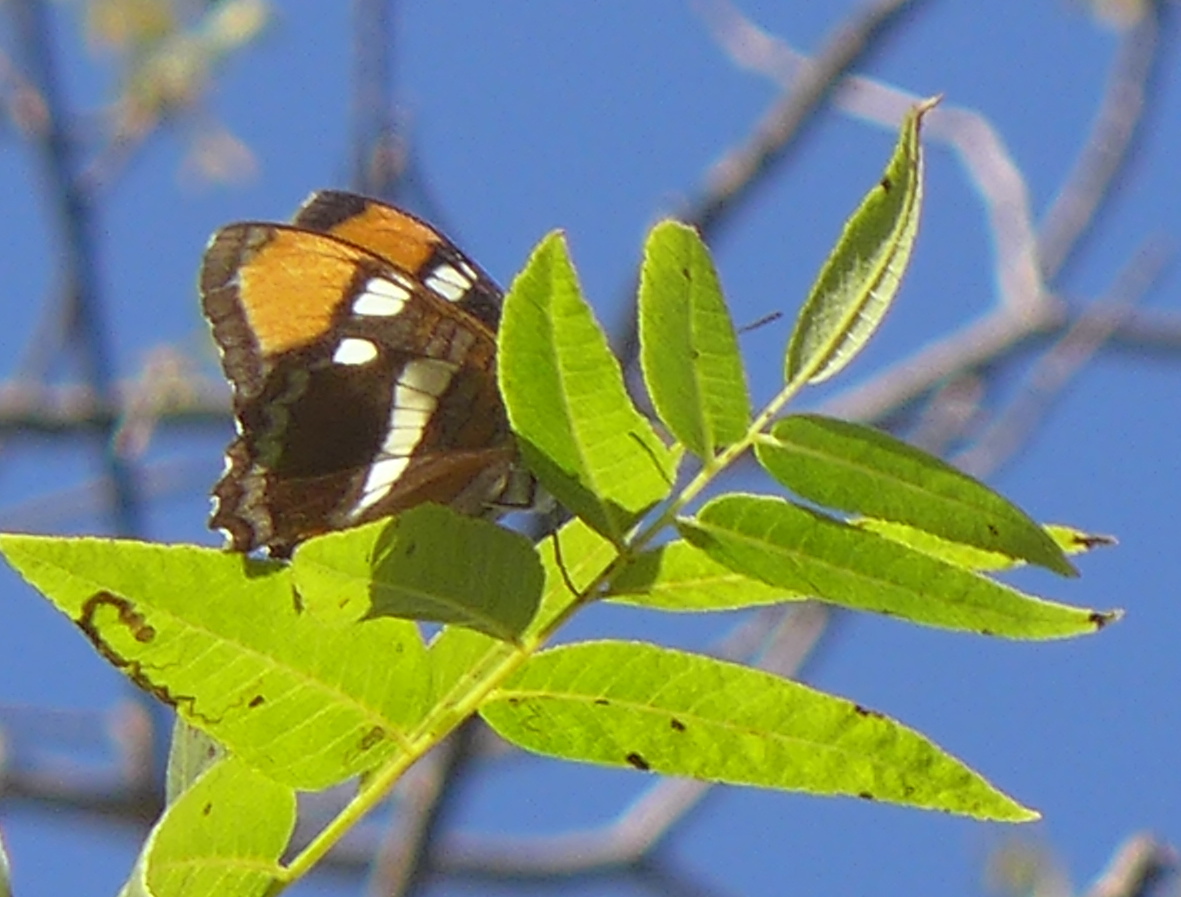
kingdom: Animalia
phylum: Arthropoda
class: Insecta
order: Lepidoptera
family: Nymphalidae
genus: Limenitis
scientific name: Limenitis bredowii
